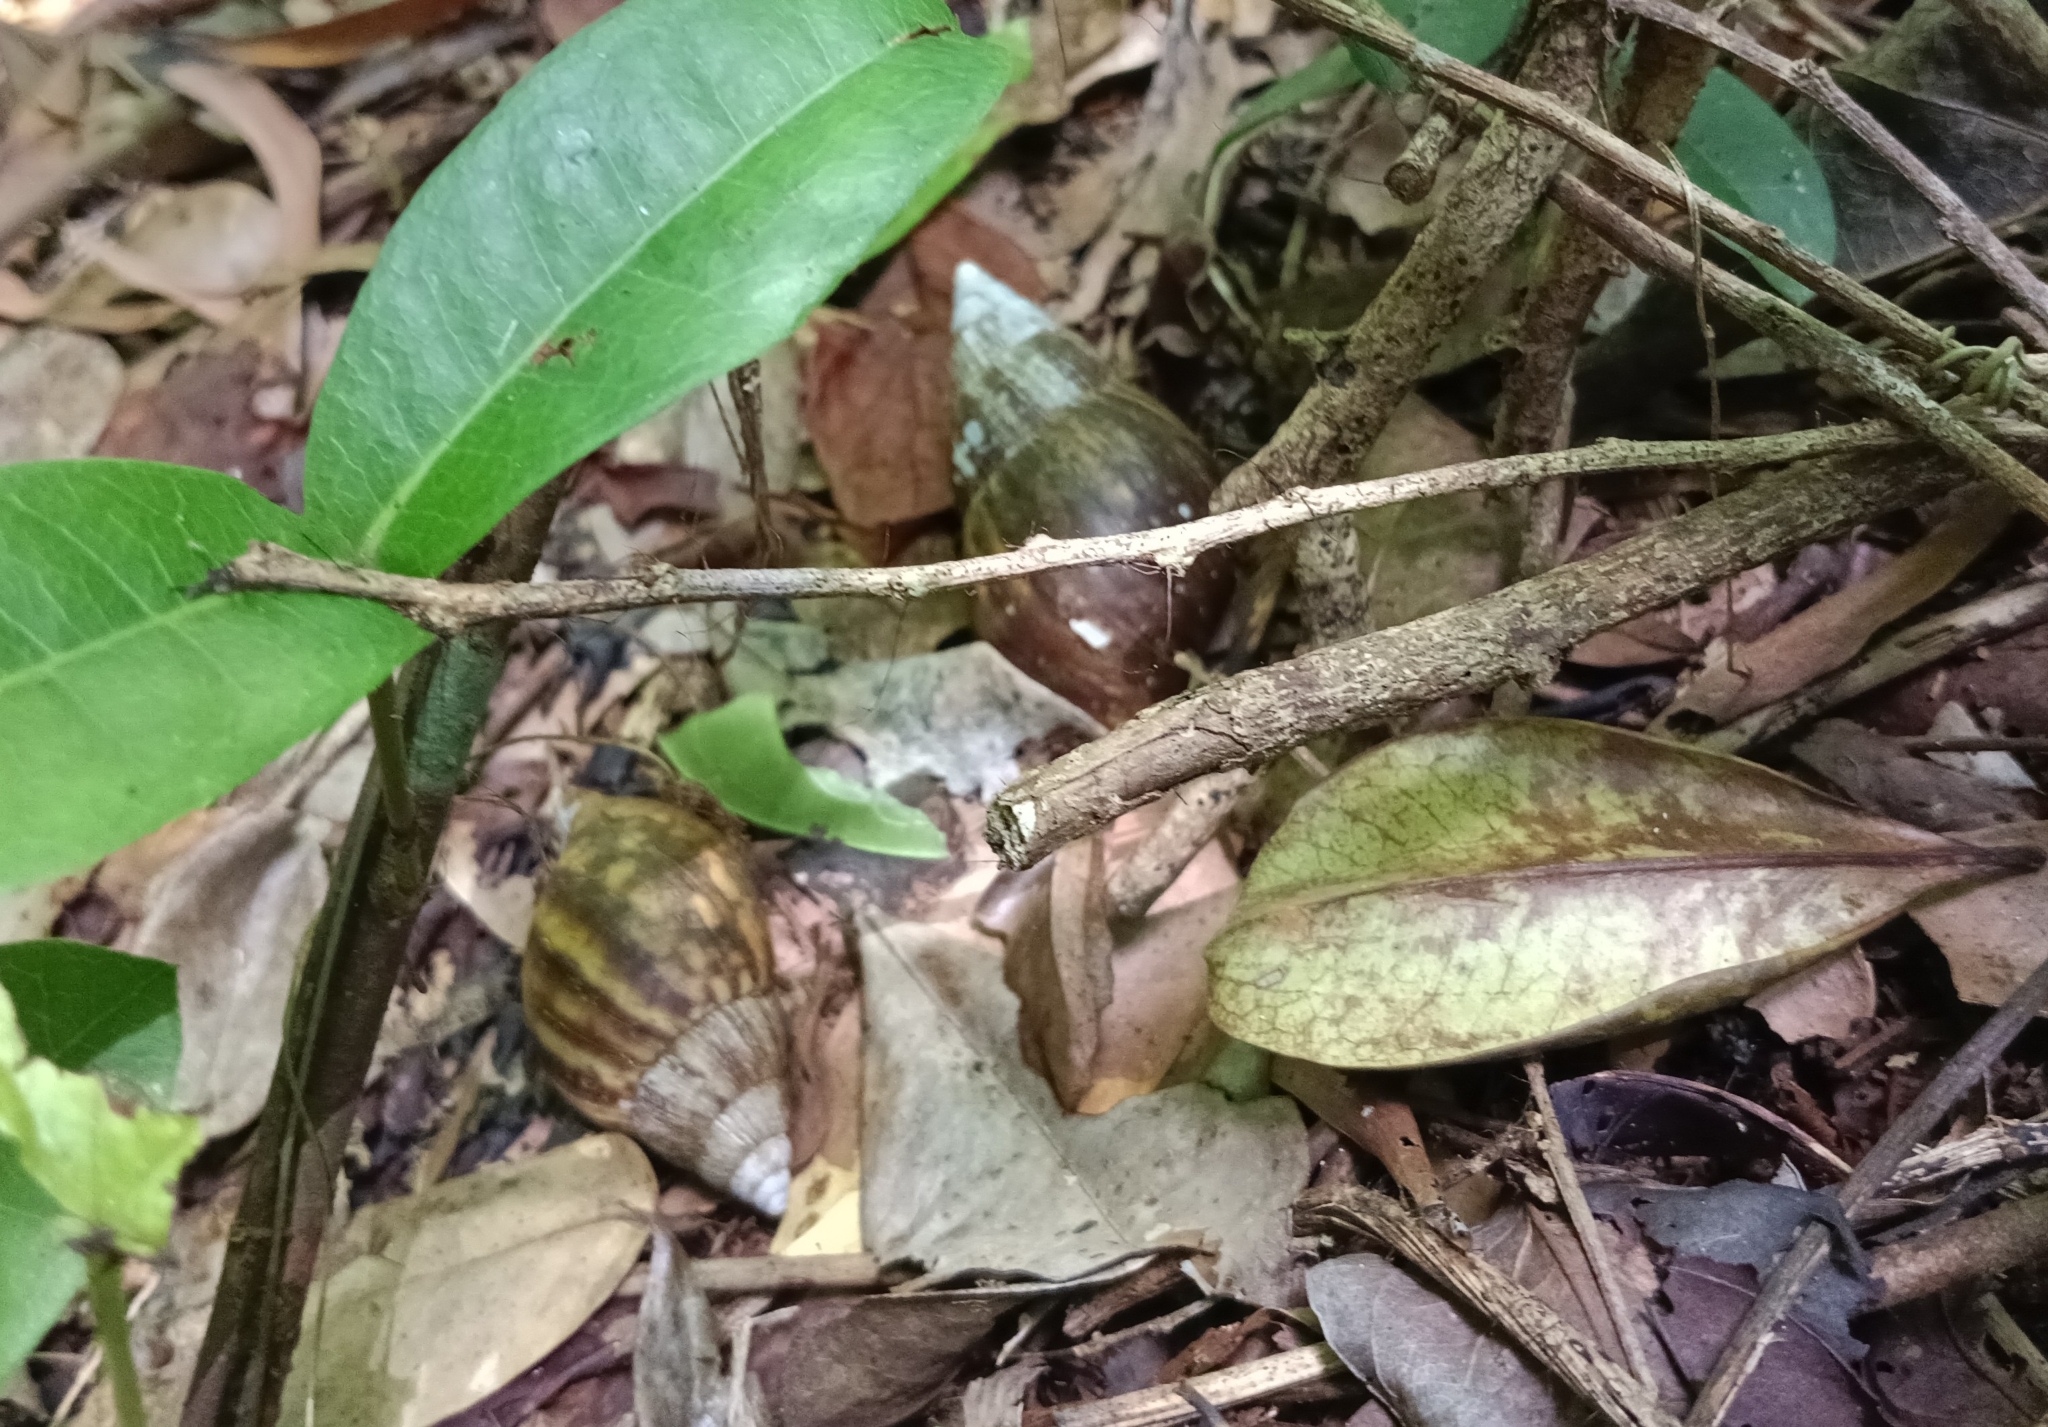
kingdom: Animalia
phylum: Mollusca
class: Gastropoda
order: Stylommatophora
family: Achatinidae
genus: Lissachatina
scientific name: Lissachatina fulica
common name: Giant african snail
